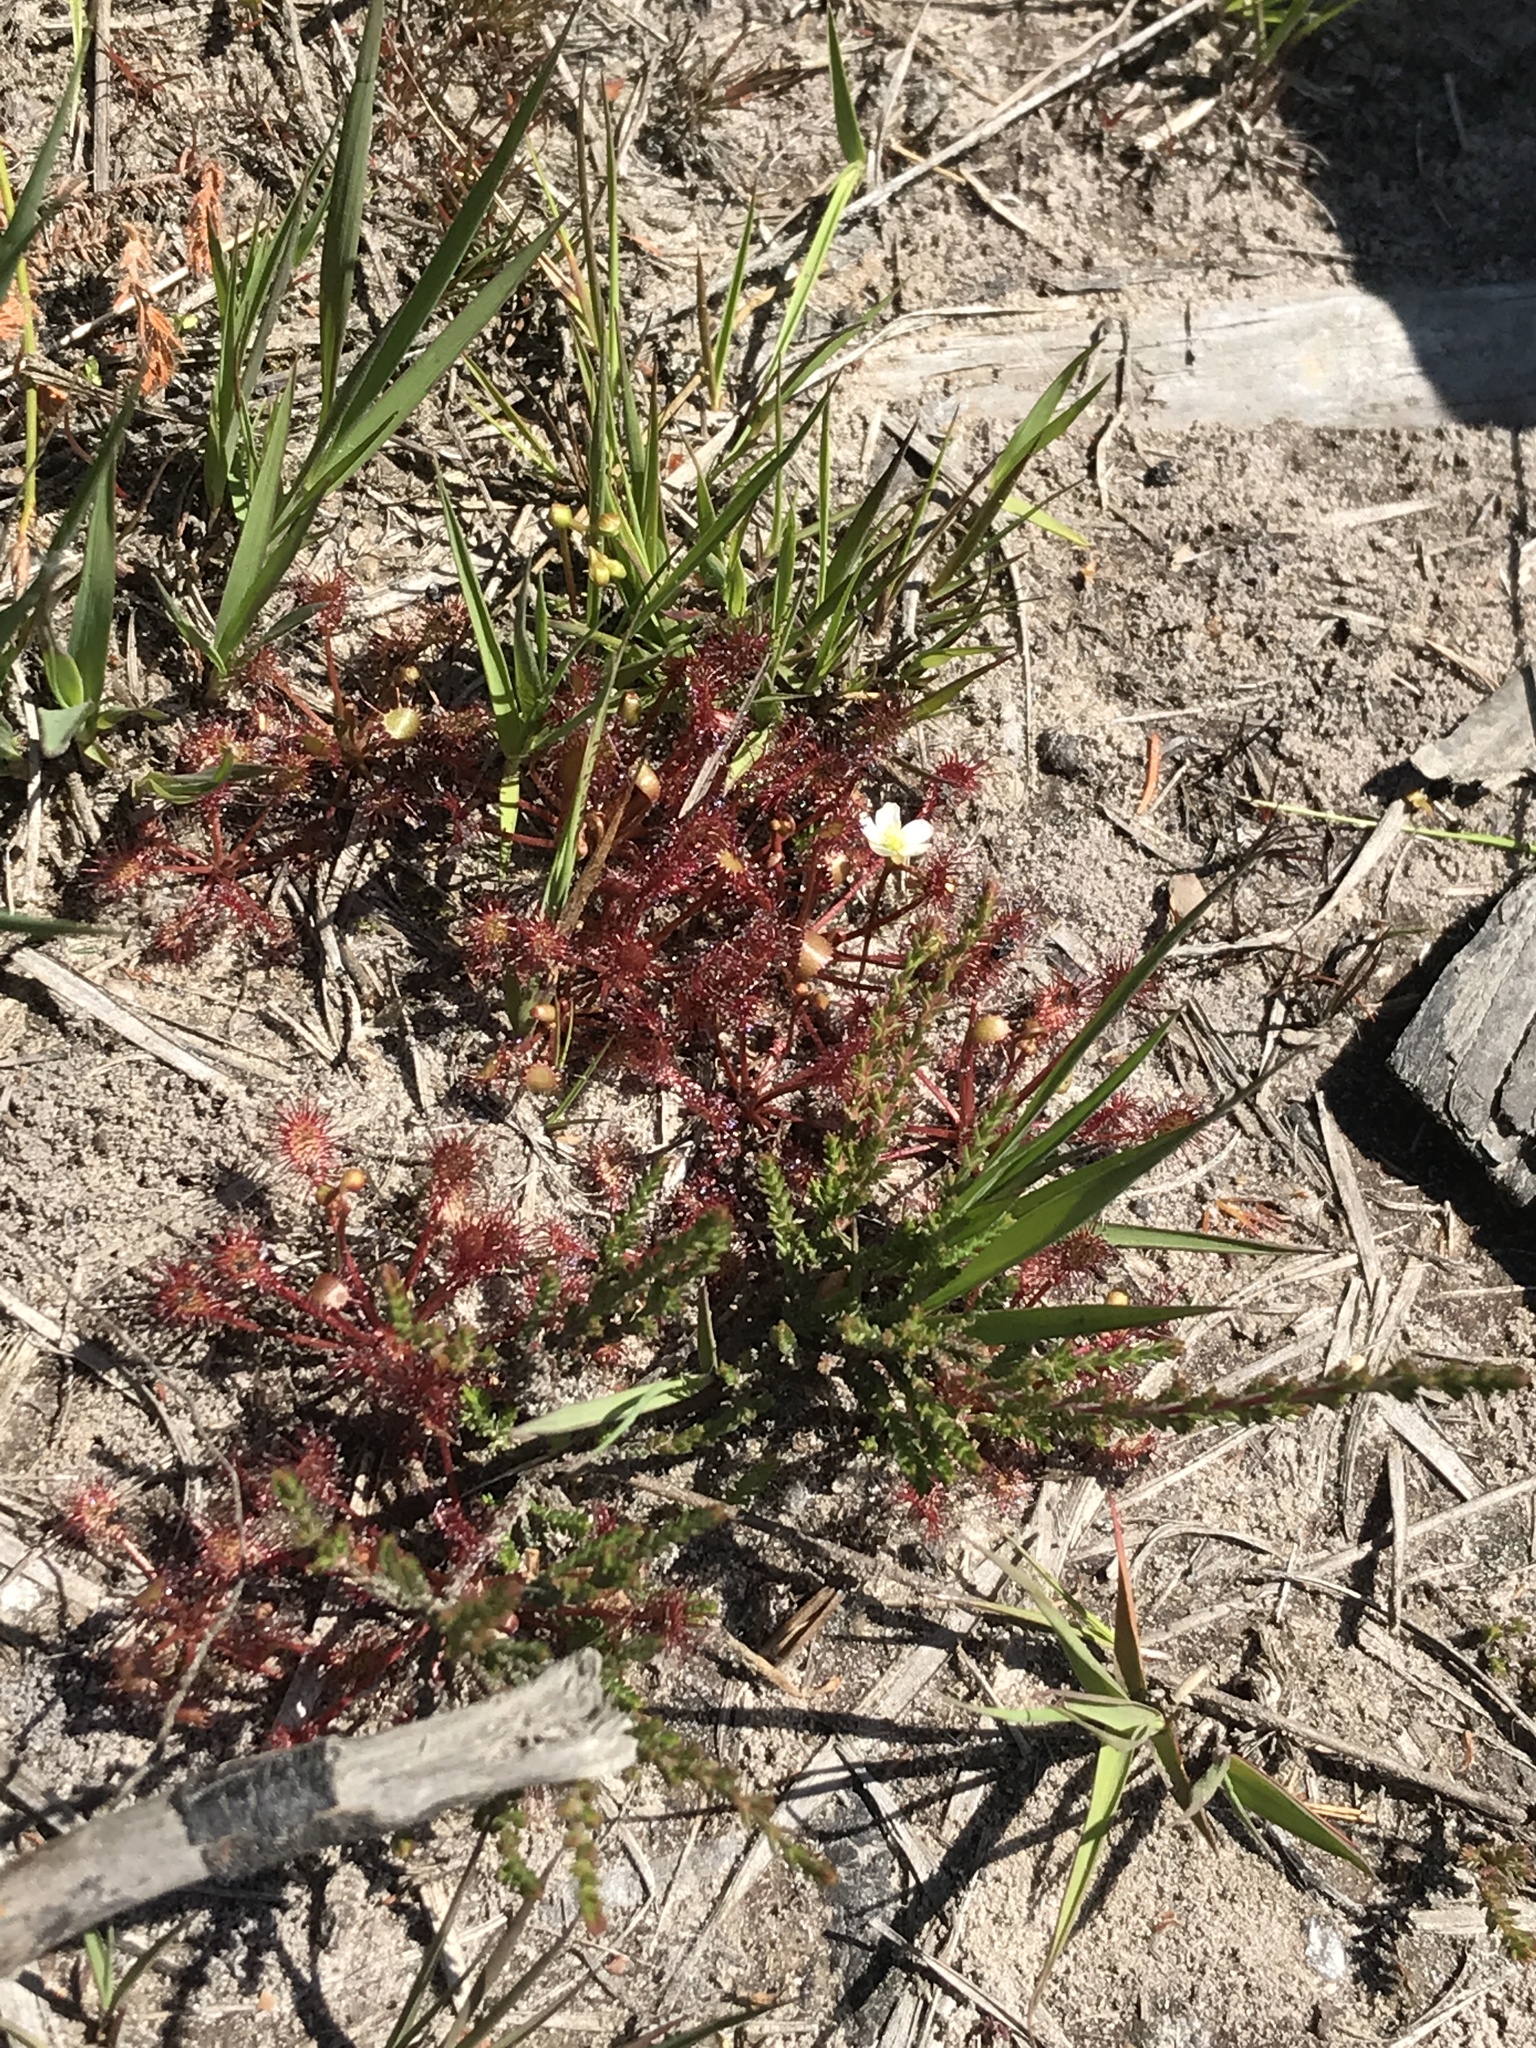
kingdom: Plantae
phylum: Tracheophyta
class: Magnoliopsida
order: Caryophyllales
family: Droseraceae
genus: Drosera
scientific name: Drosera intermedia
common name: Oblong-leaved sundew
